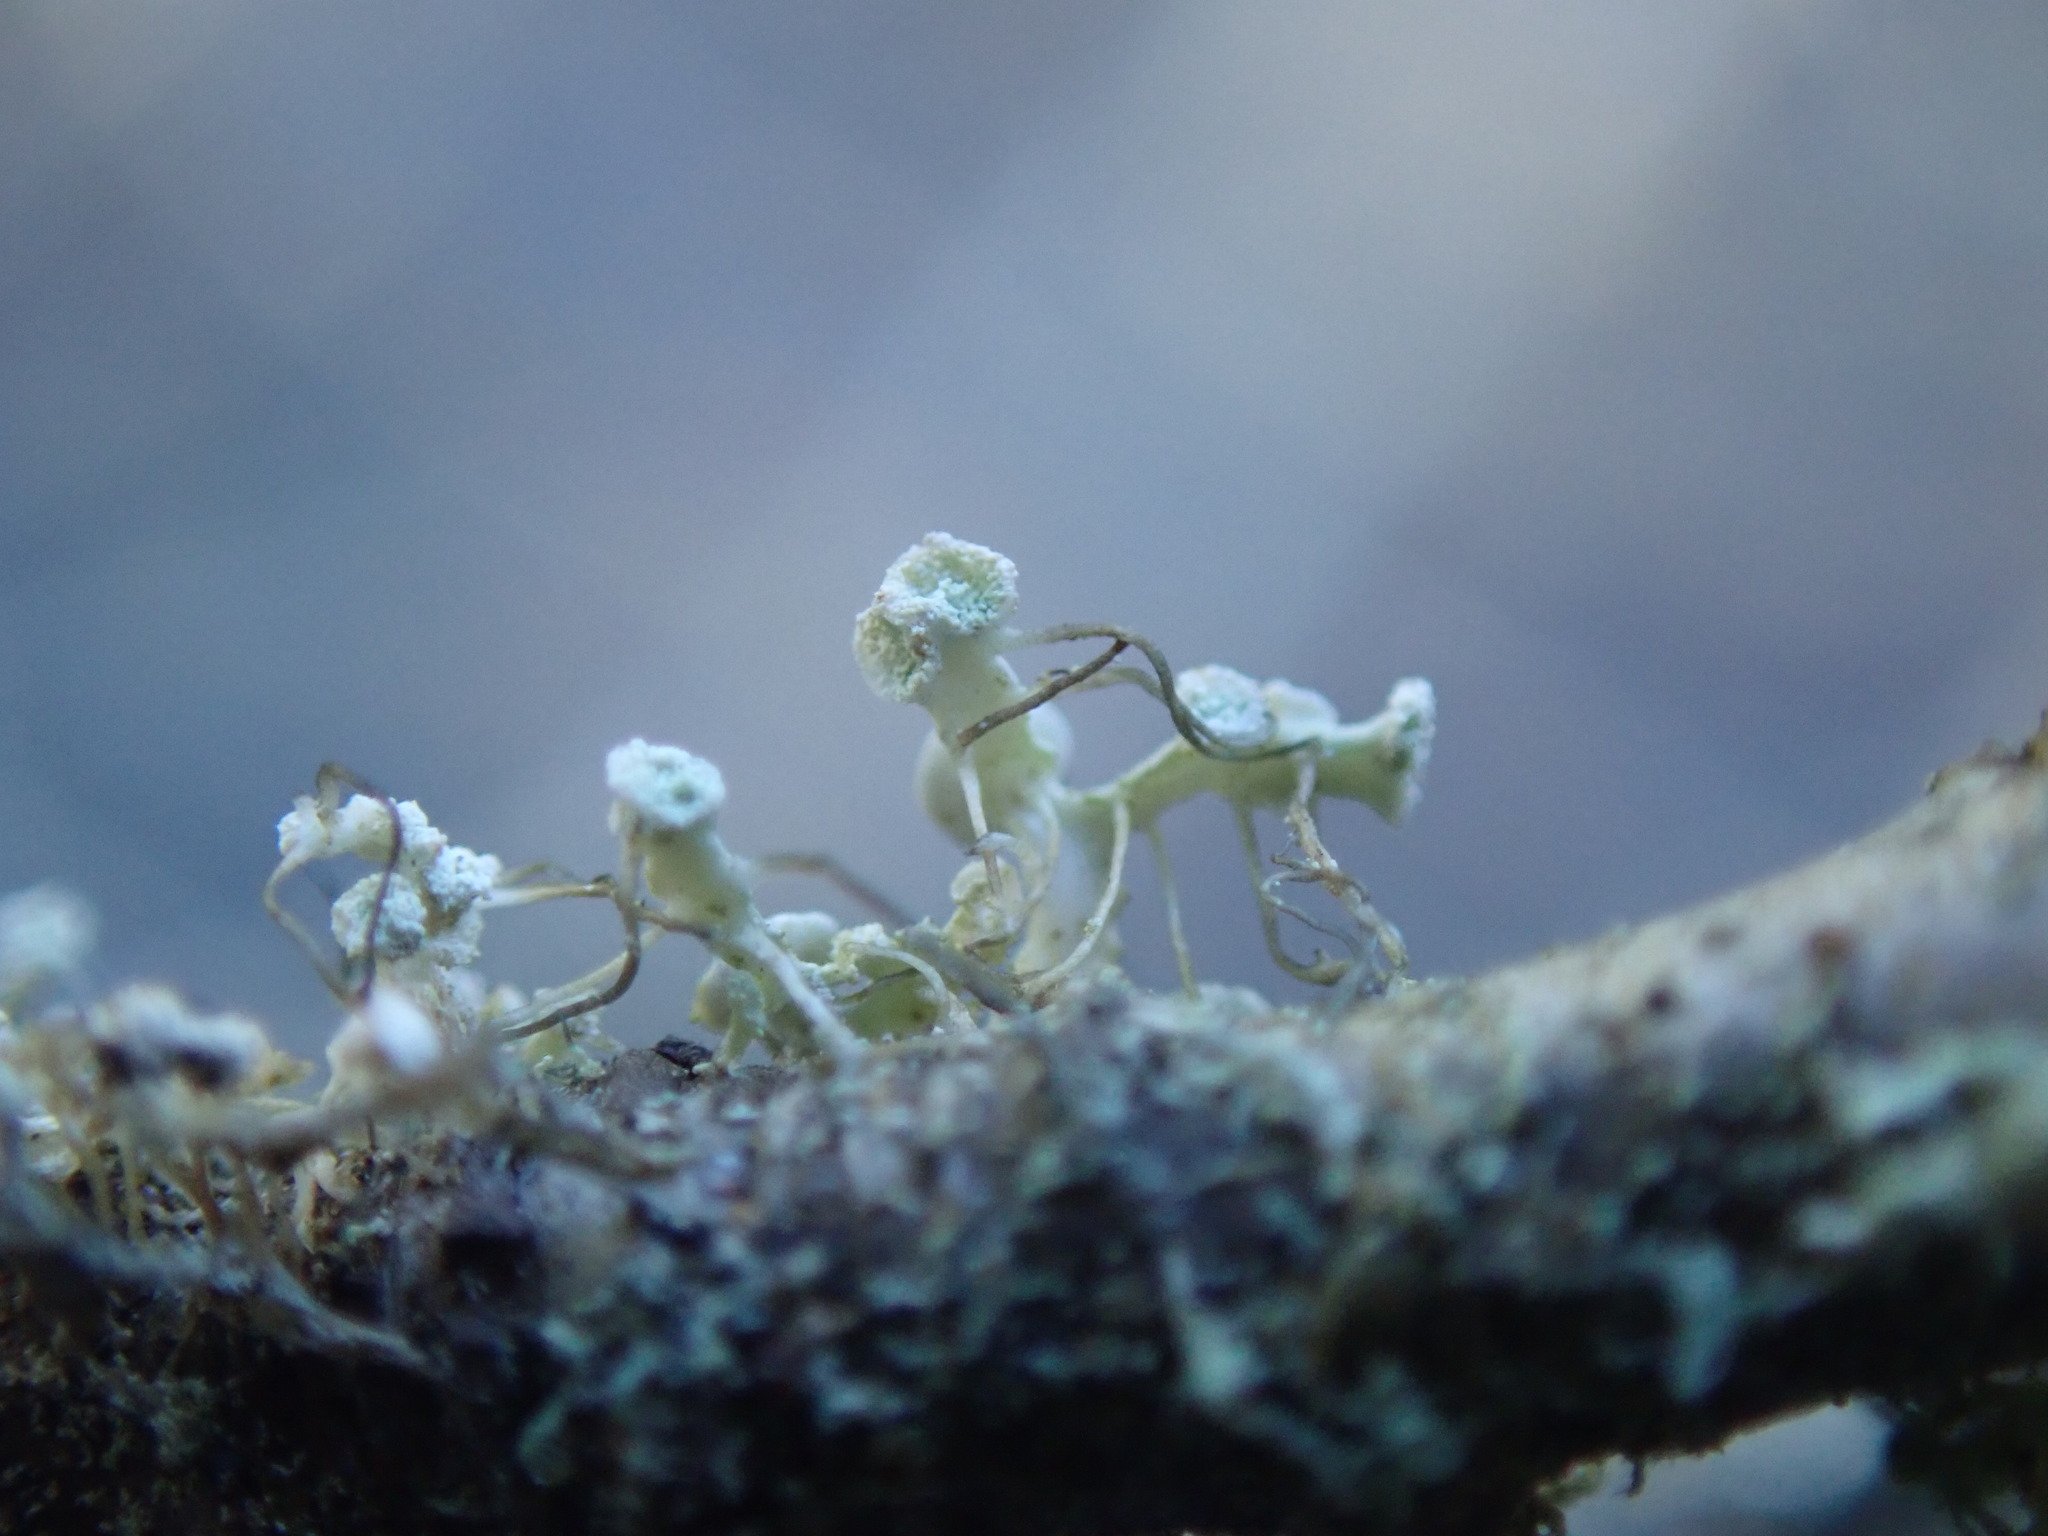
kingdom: Fungi
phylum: Ascomycota
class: Lecanoromycetes
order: Caliciales
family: Physciaceae
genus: Physcia
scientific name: Physcia tenella
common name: Fringed rosette lichen
